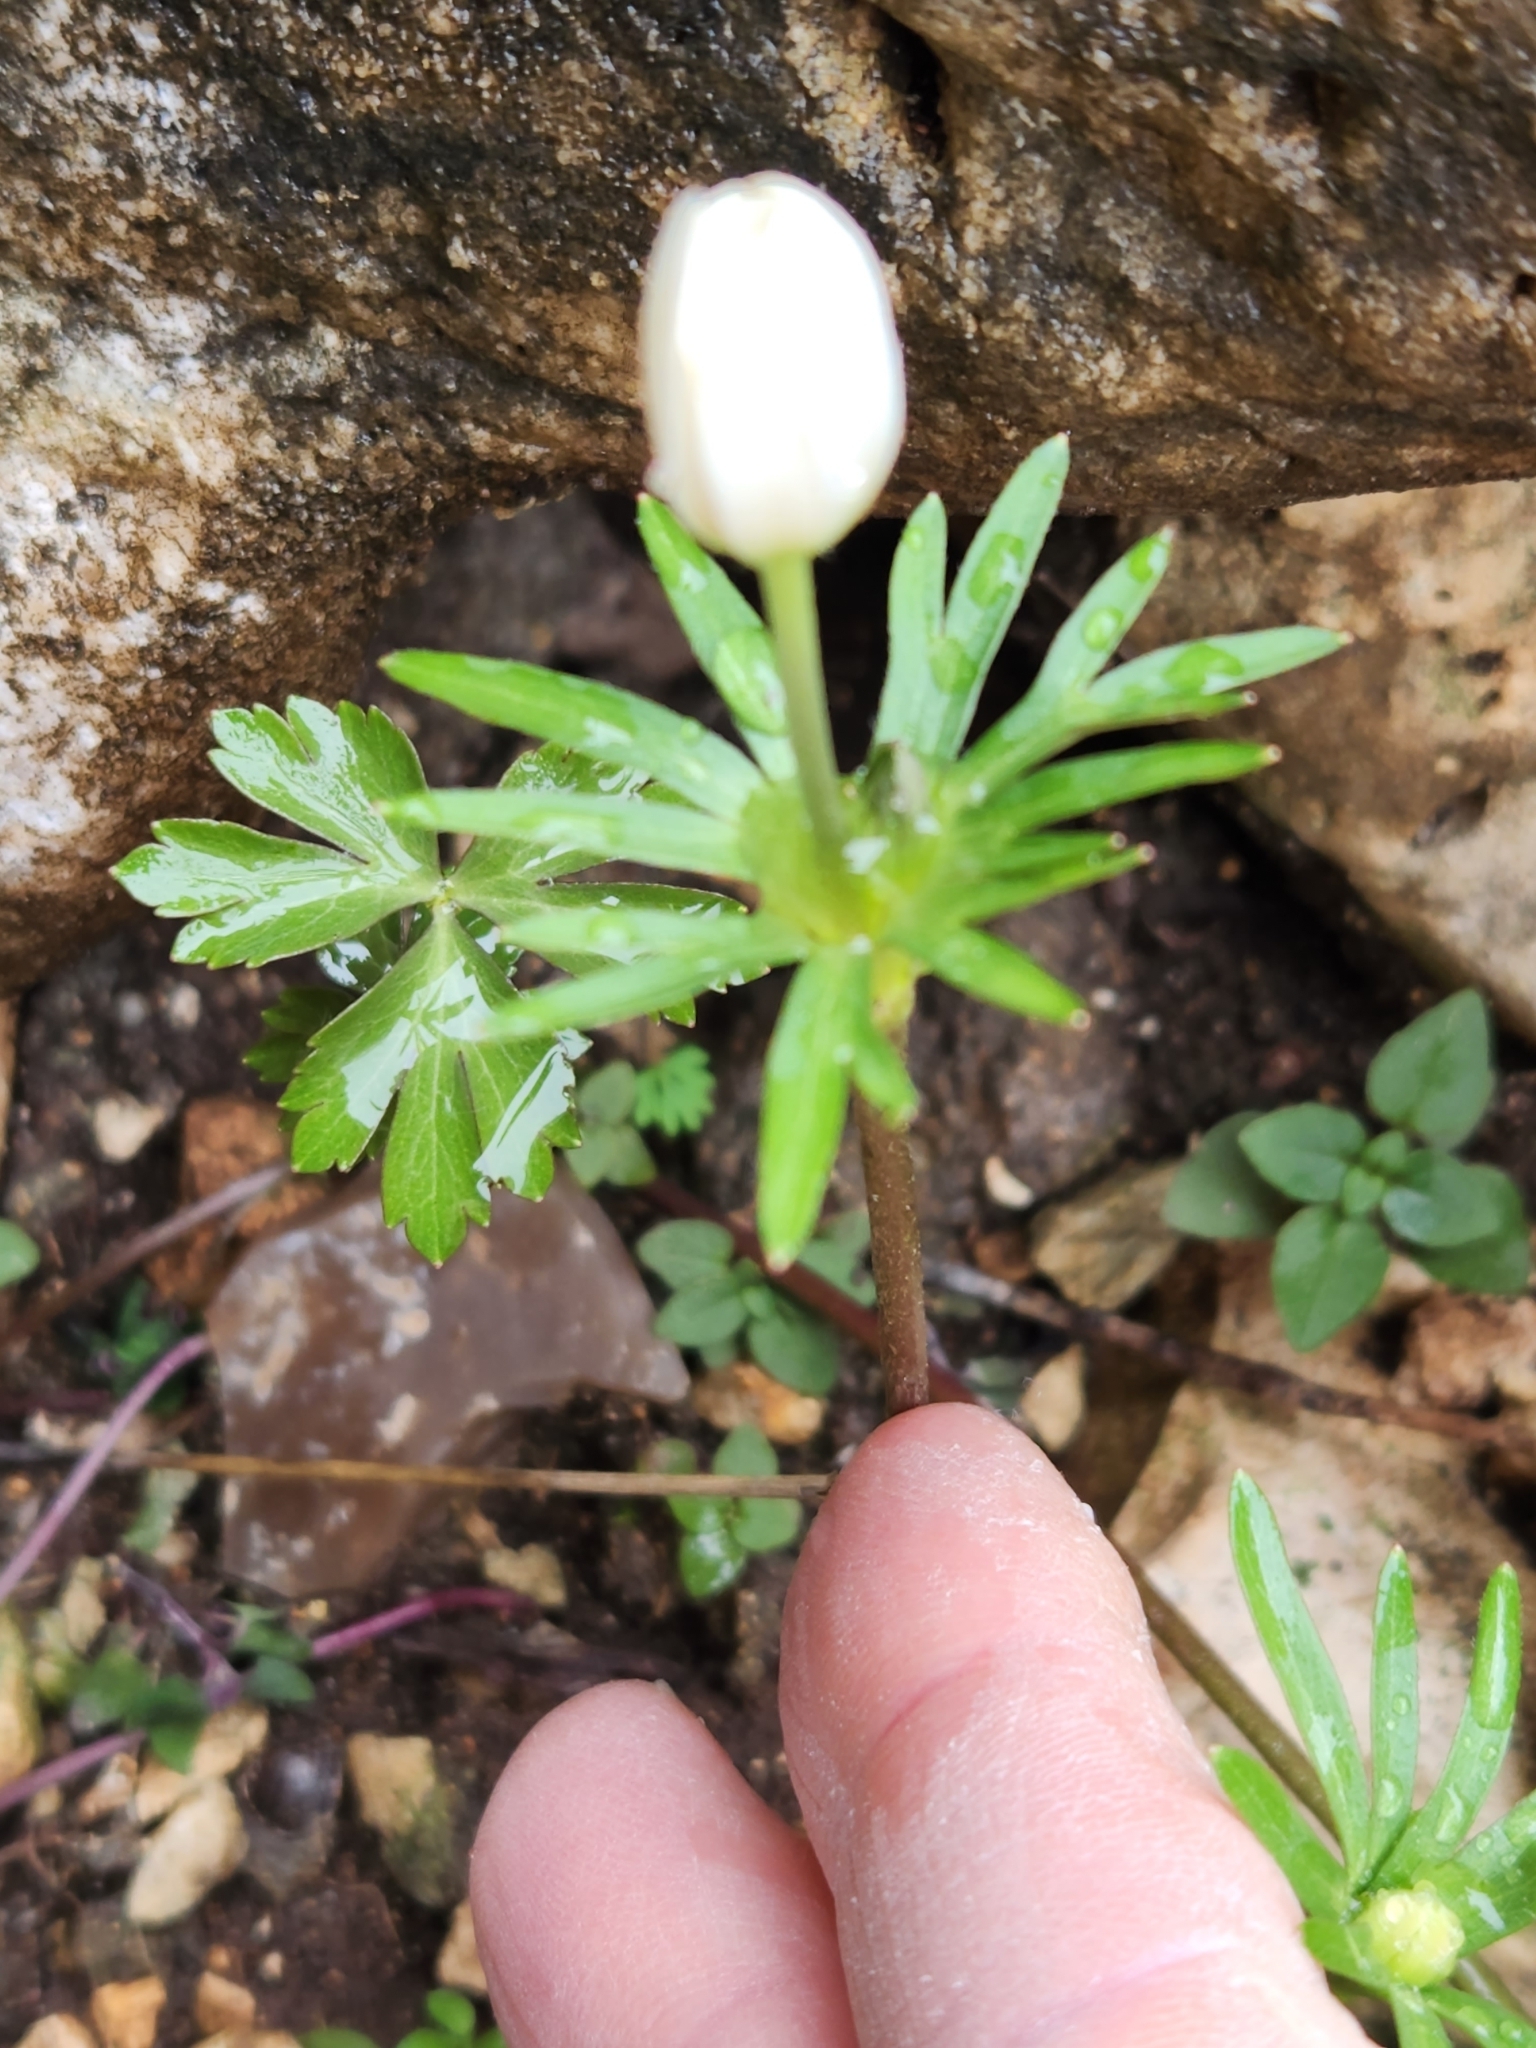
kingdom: Plantae
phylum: Tracheophyta
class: Magnoliopsida
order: Ranunculales
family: Ranunculaceae
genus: Anemone
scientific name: Anemone edwardsiana
